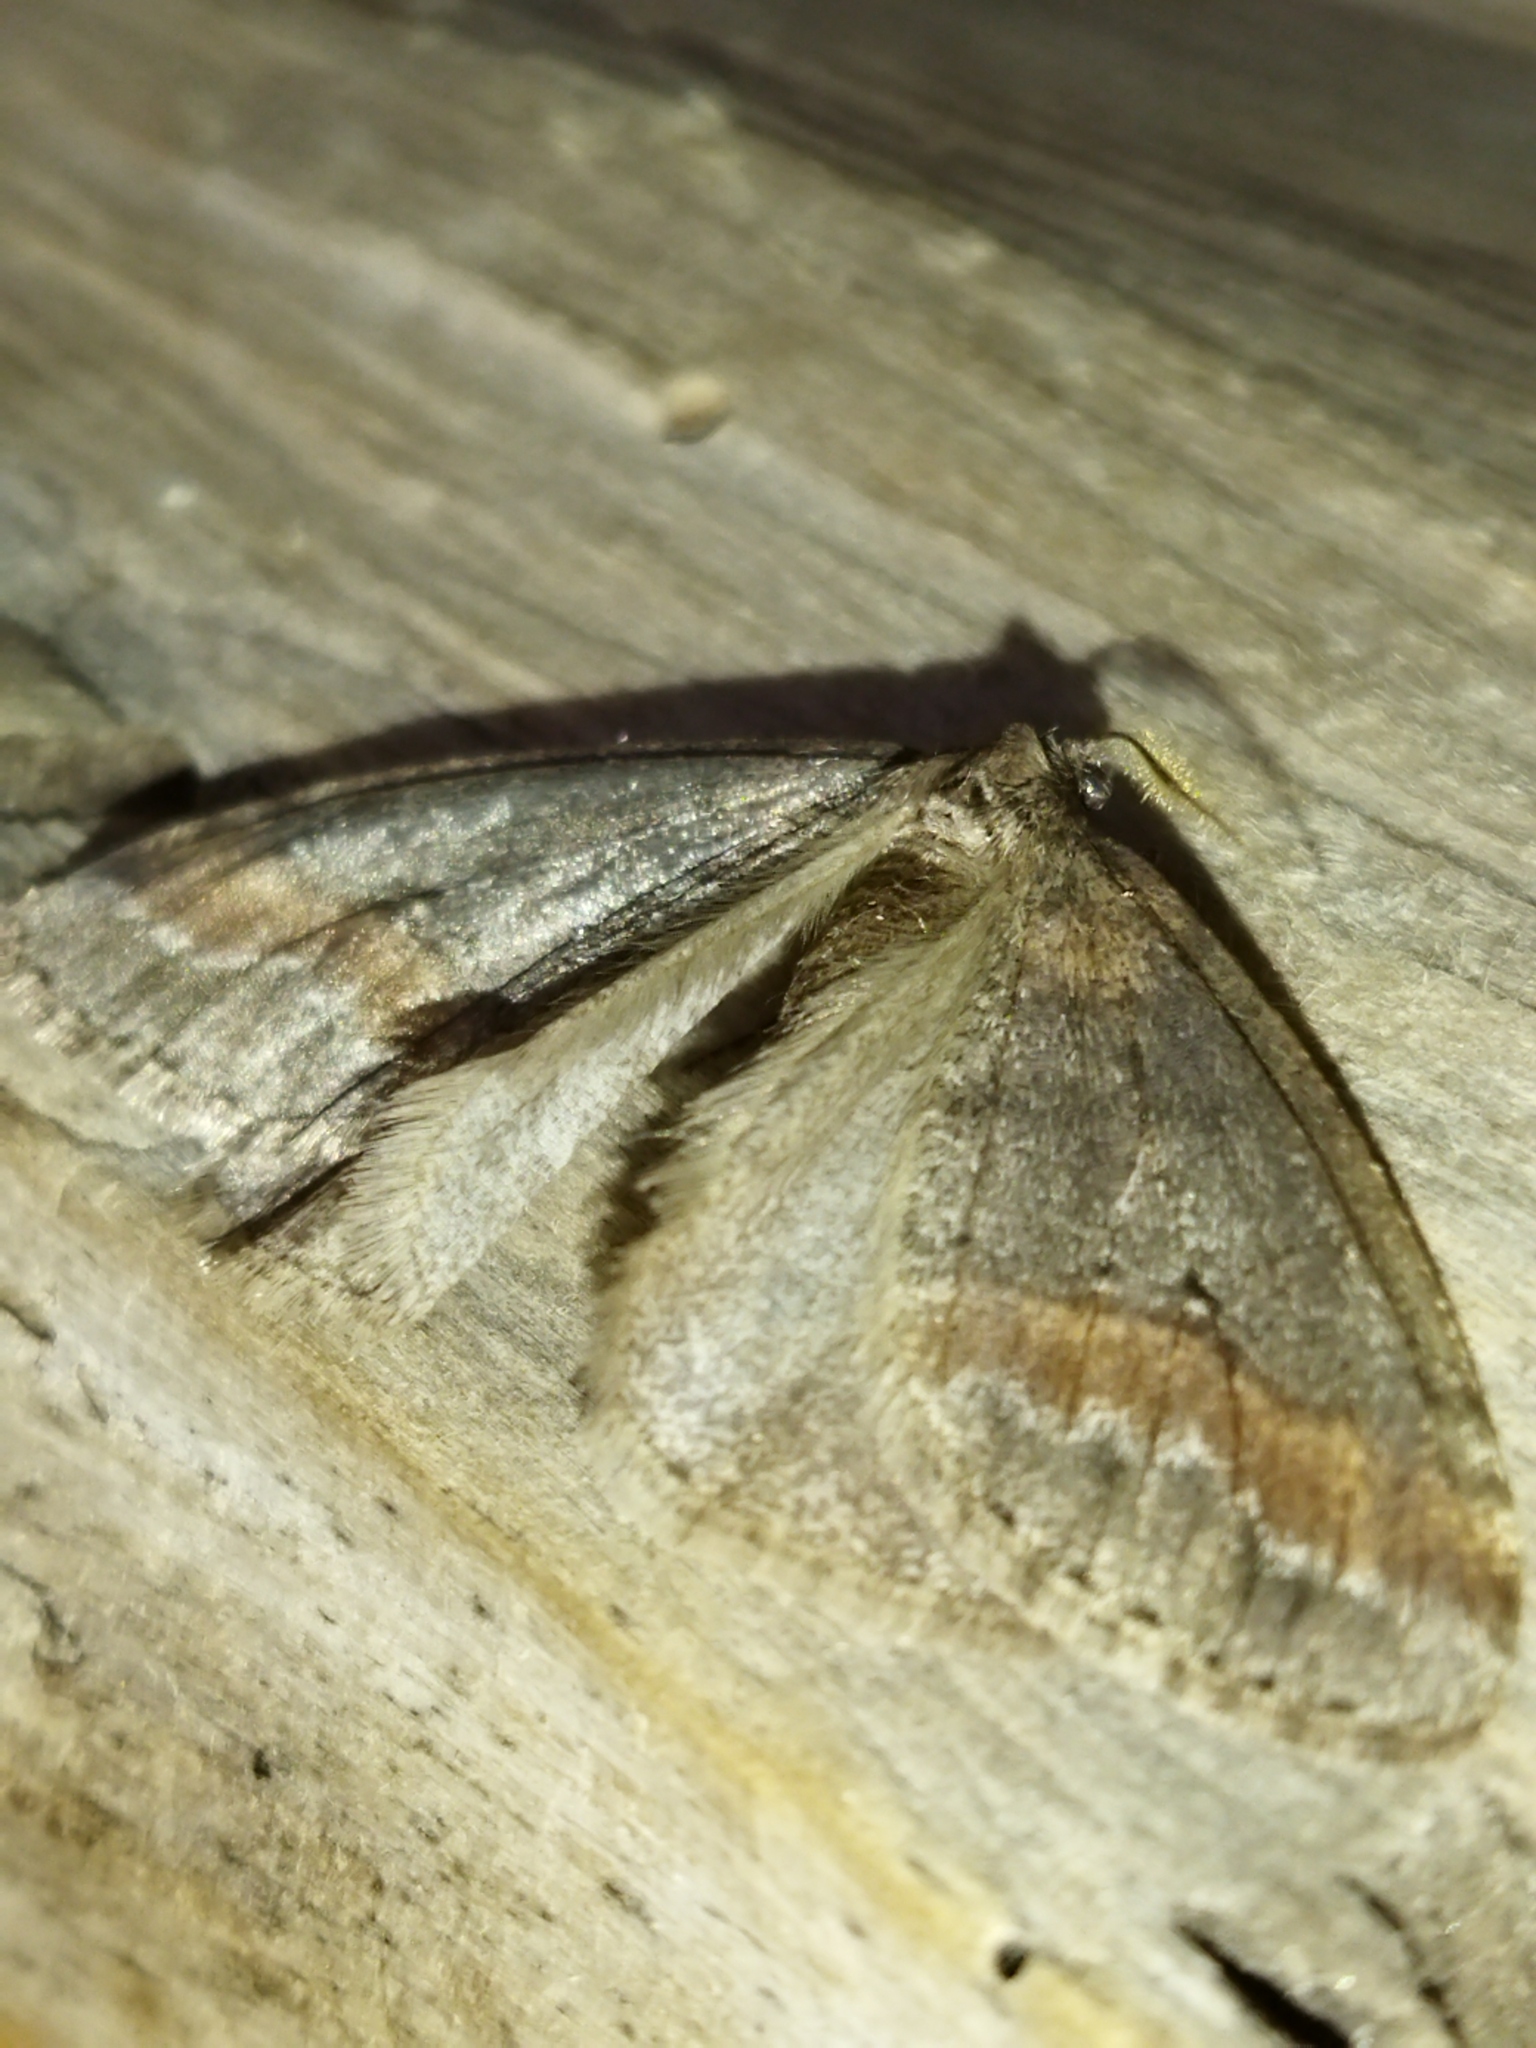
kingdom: Animalia
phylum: Arthropoda
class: Insecta
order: Lepidoptera
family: Geometridae
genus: Erannis
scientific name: Erannis declinans
